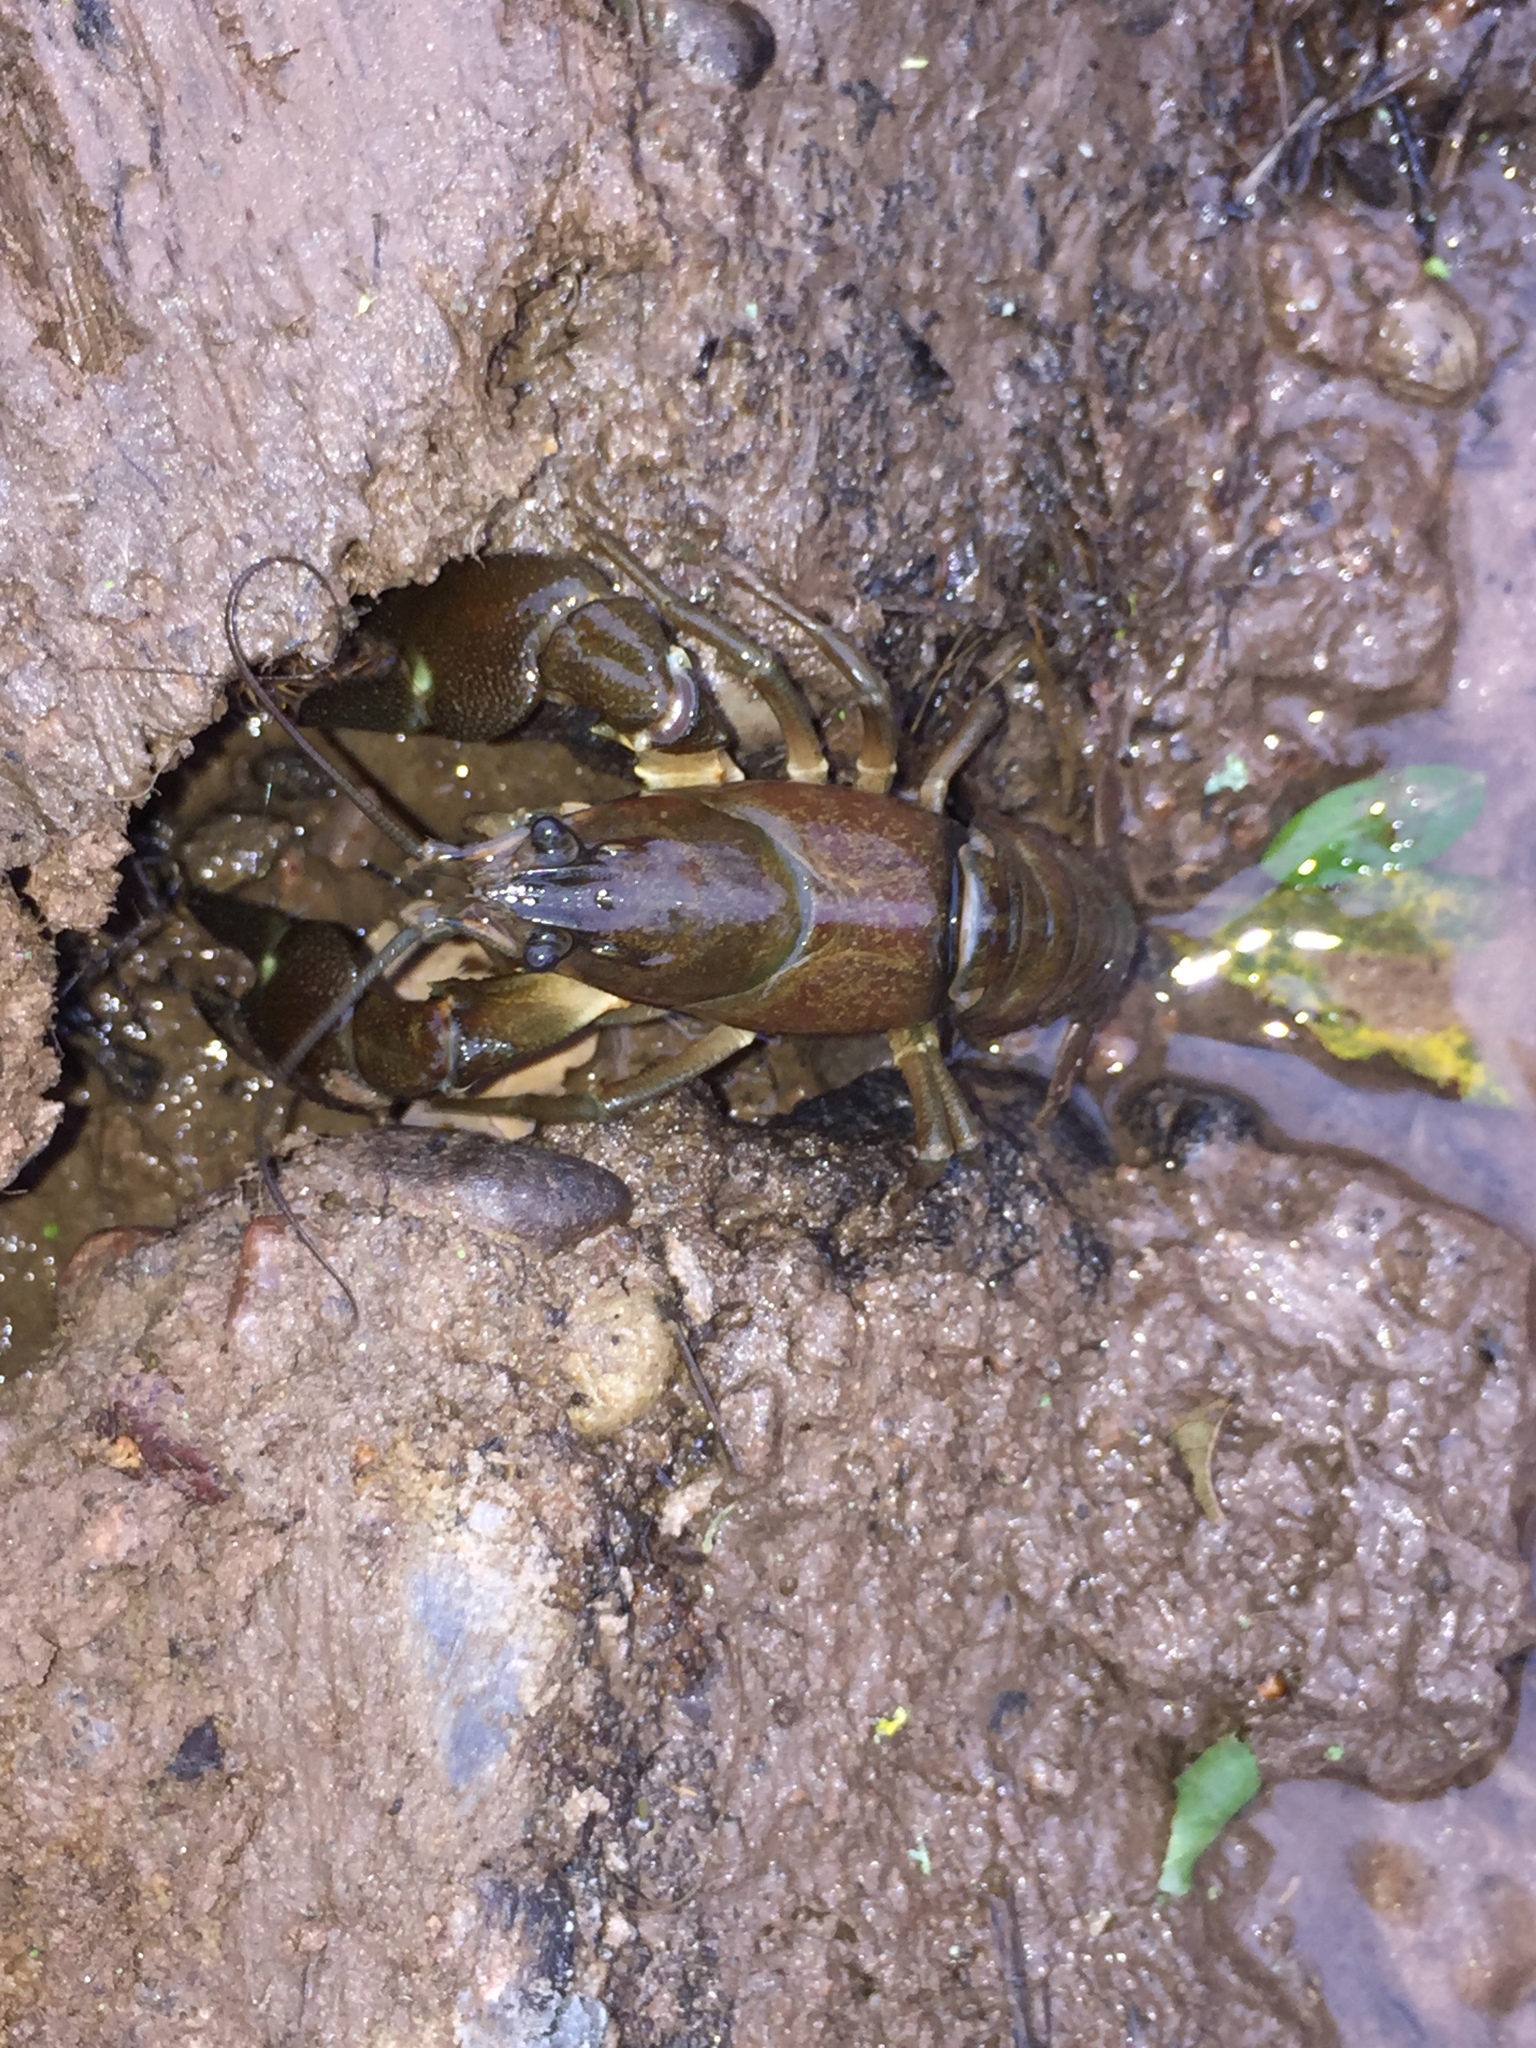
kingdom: Animalia
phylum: Arthropoda
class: Malacostraca
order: Decapoda
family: Astacidae
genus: Pacifastacus
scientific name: Pacifastacus leniusculus
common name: Signal crayfish
